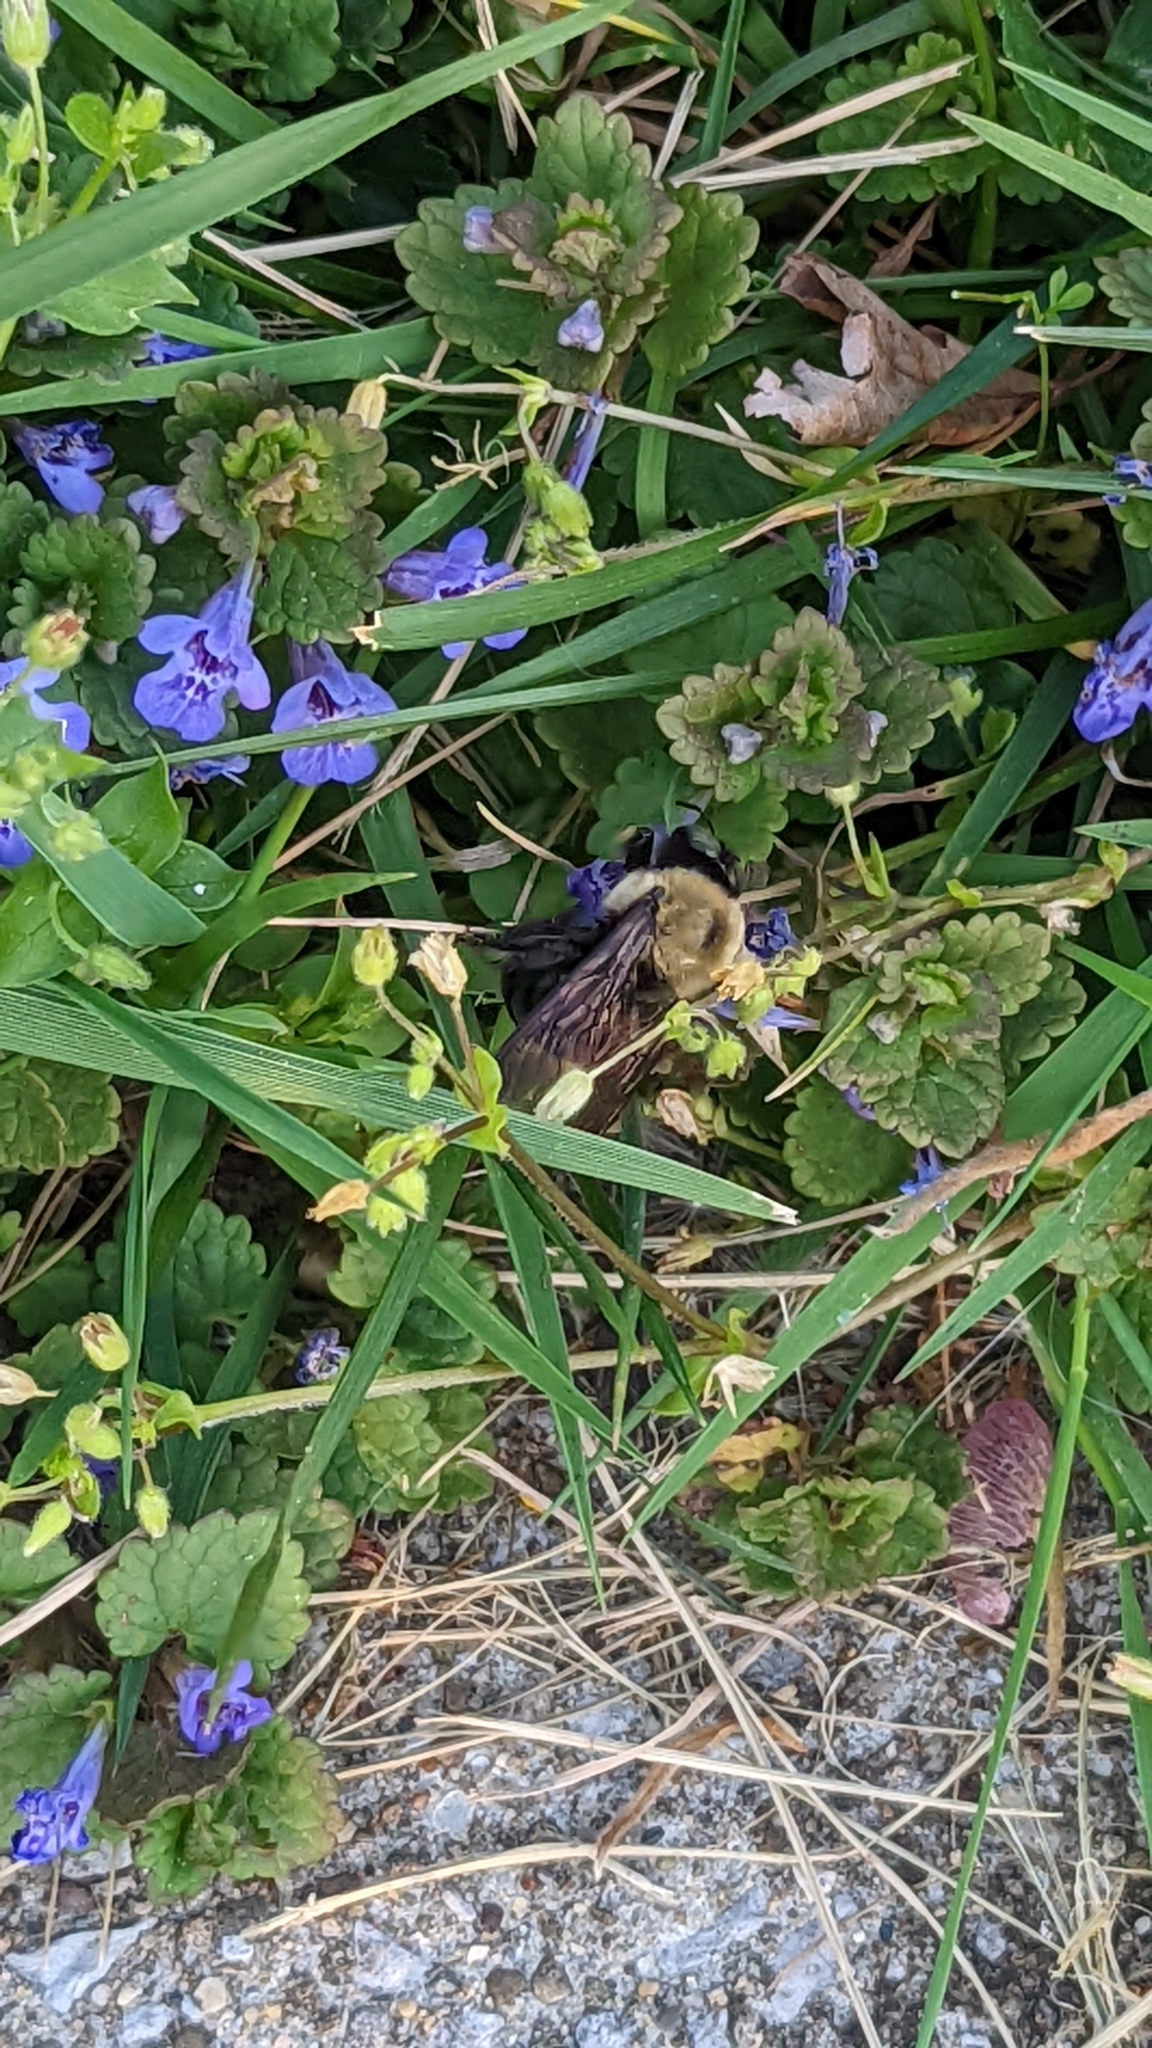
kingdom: Animalia
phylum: Arthropoda
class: Insecta
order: Hymenoptera
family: Apidae
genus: Xylocopa
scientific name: Xylocopa virginica
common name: Carpenter bee
